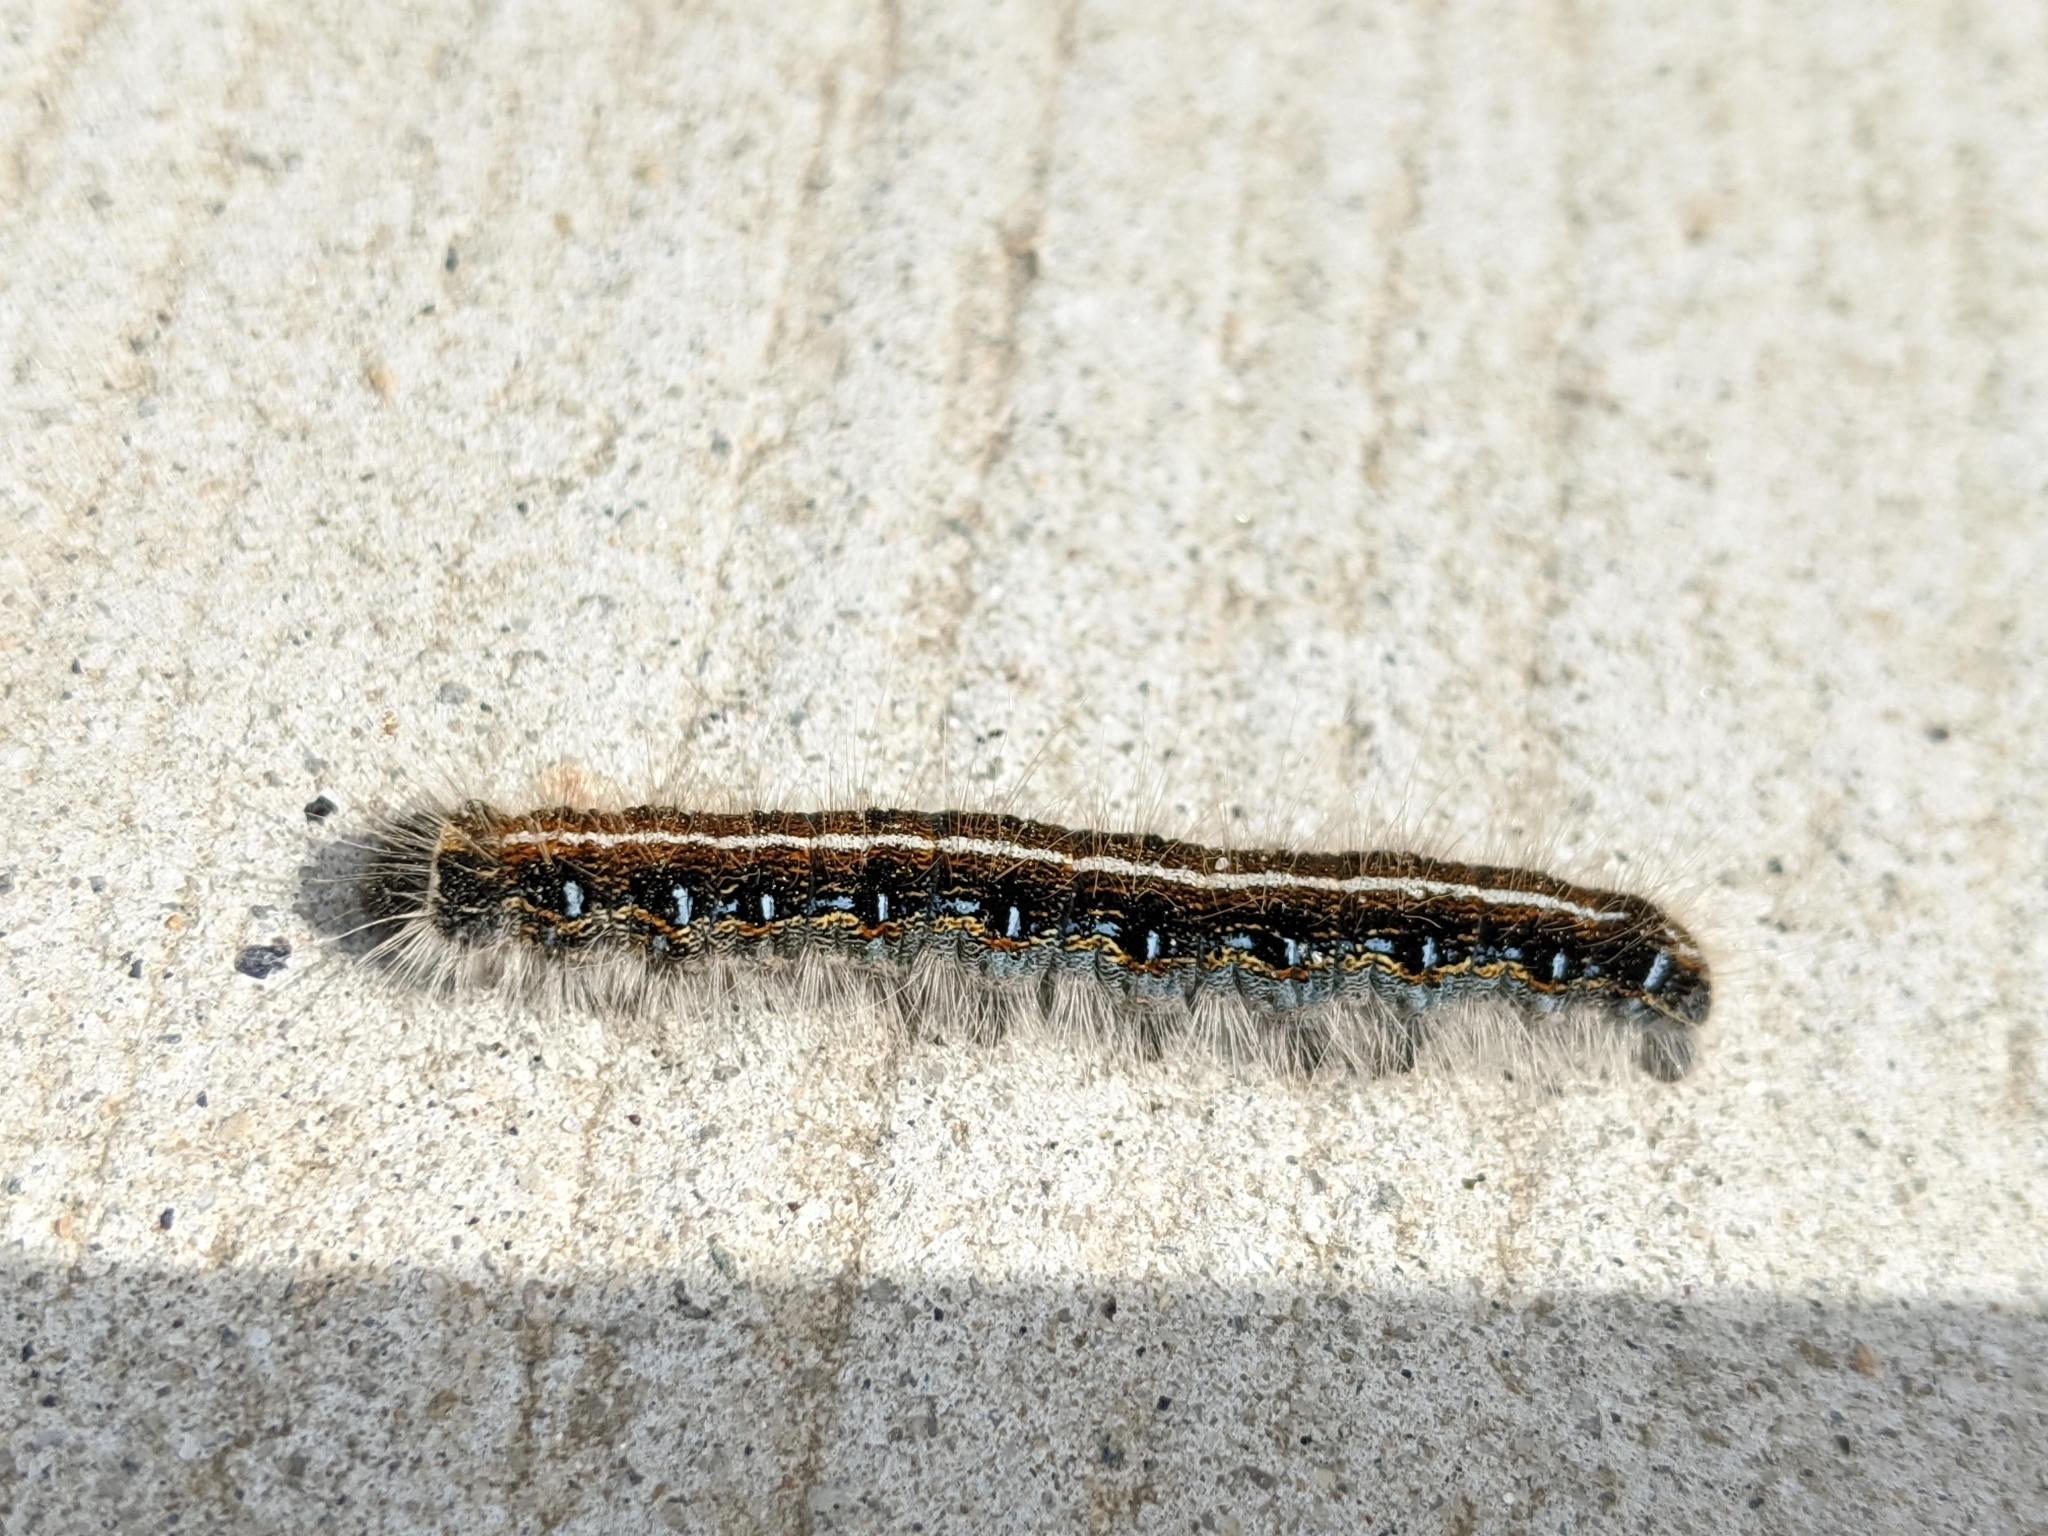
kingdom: Animalia
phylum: Arthropoda
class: Insecta
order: Lepidoptera
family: Lasiocampidae
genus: Malacosoma
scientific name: Malacosoma americana
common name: Eastern tent caterpillar moth
